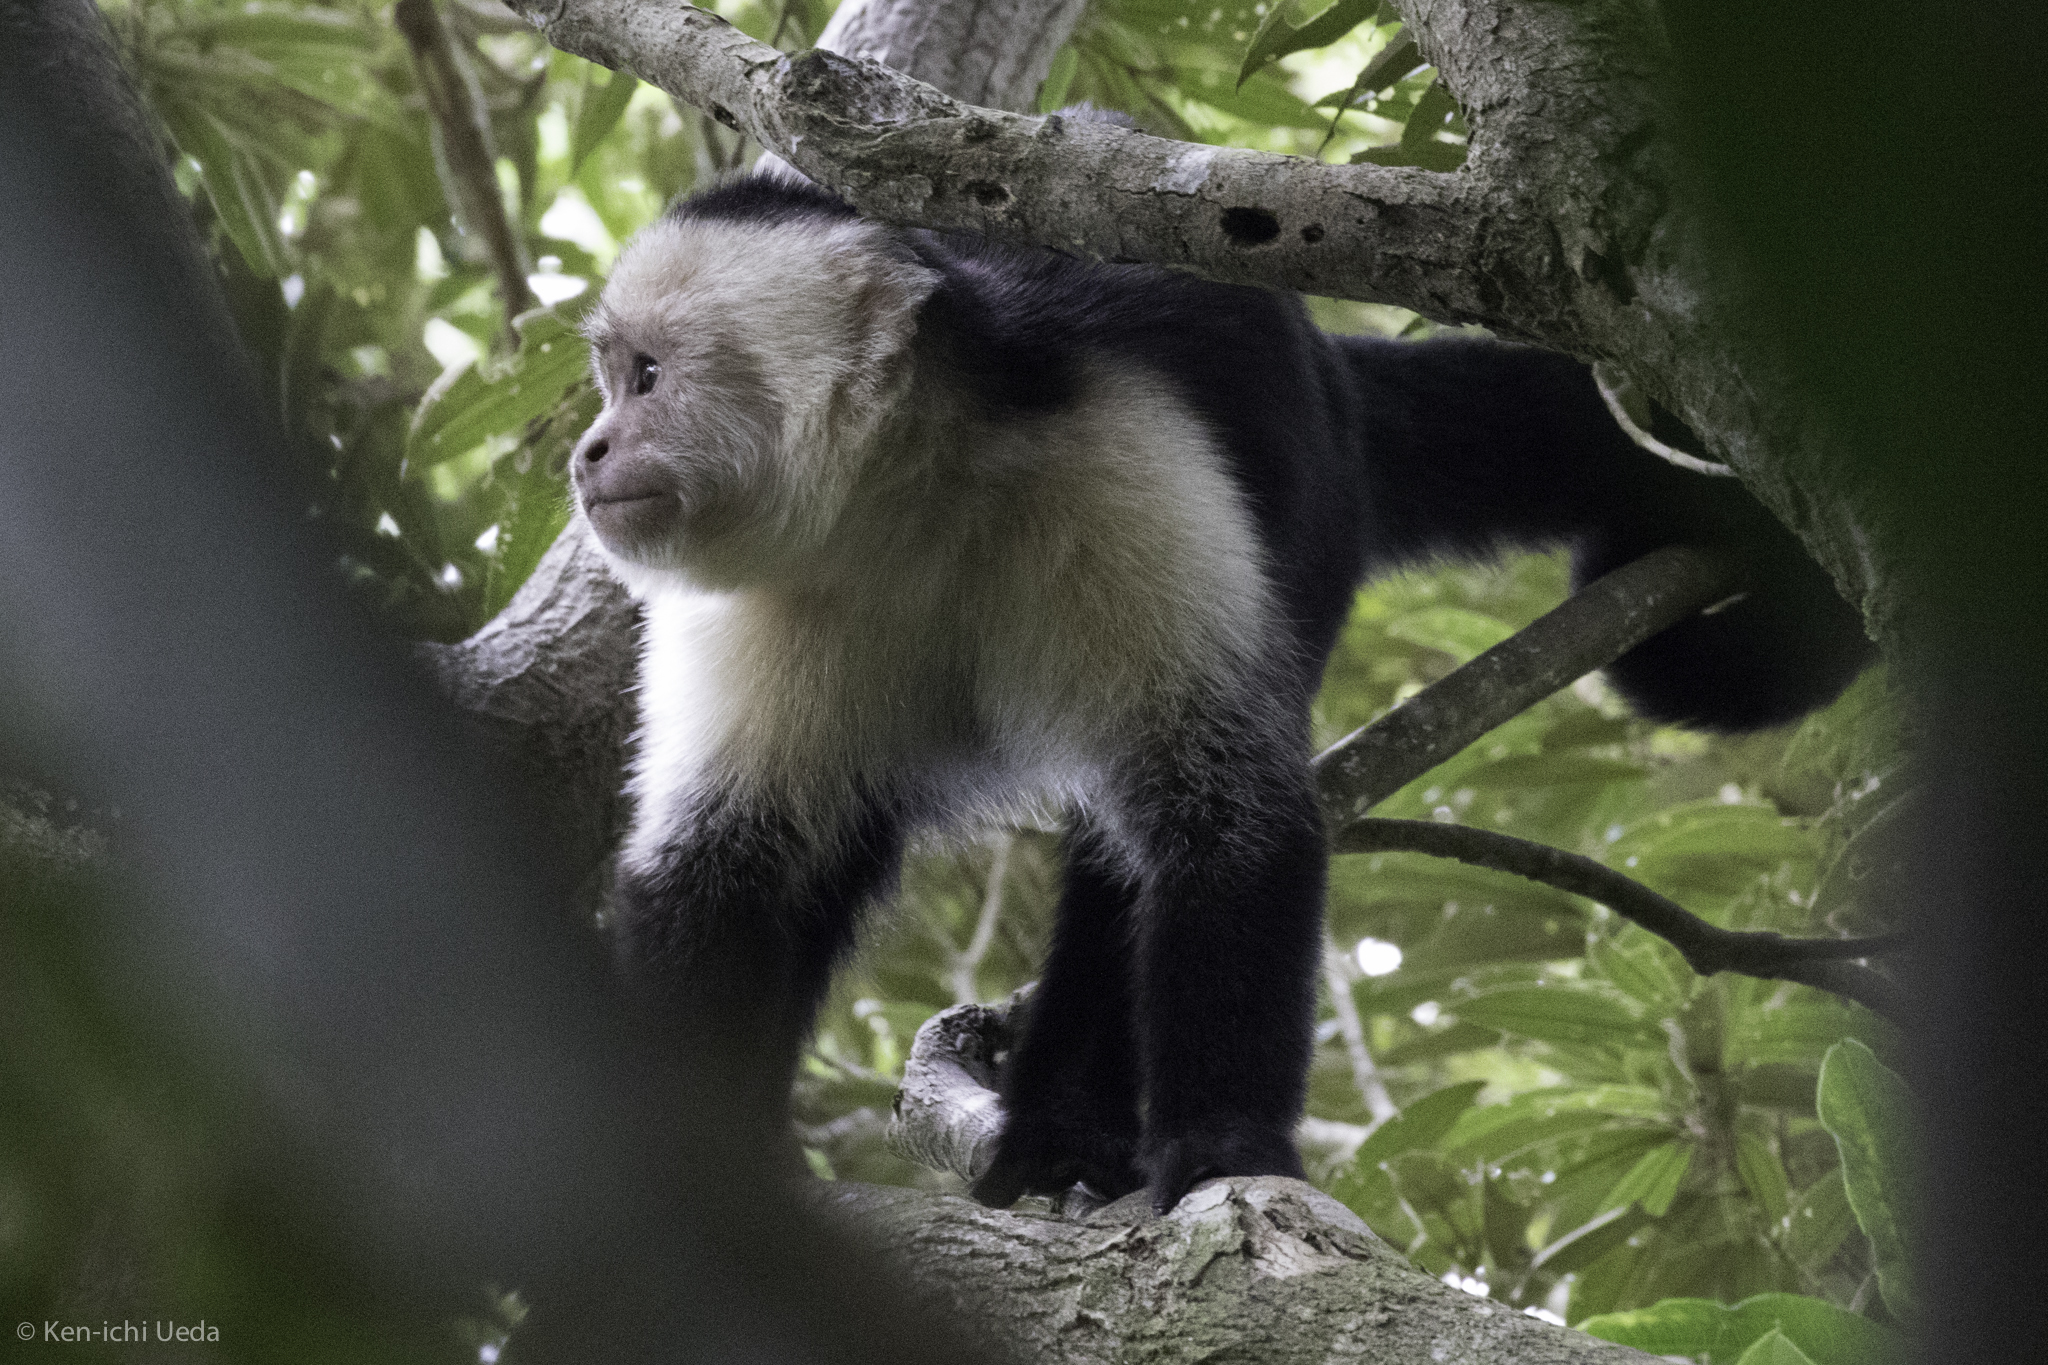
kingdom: Animalia
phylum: Chordata
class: Mammalia
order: Primates
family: Cebidae
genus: Cebus
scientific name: Cebus imitator
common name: Panamanian white-faced capuchin
